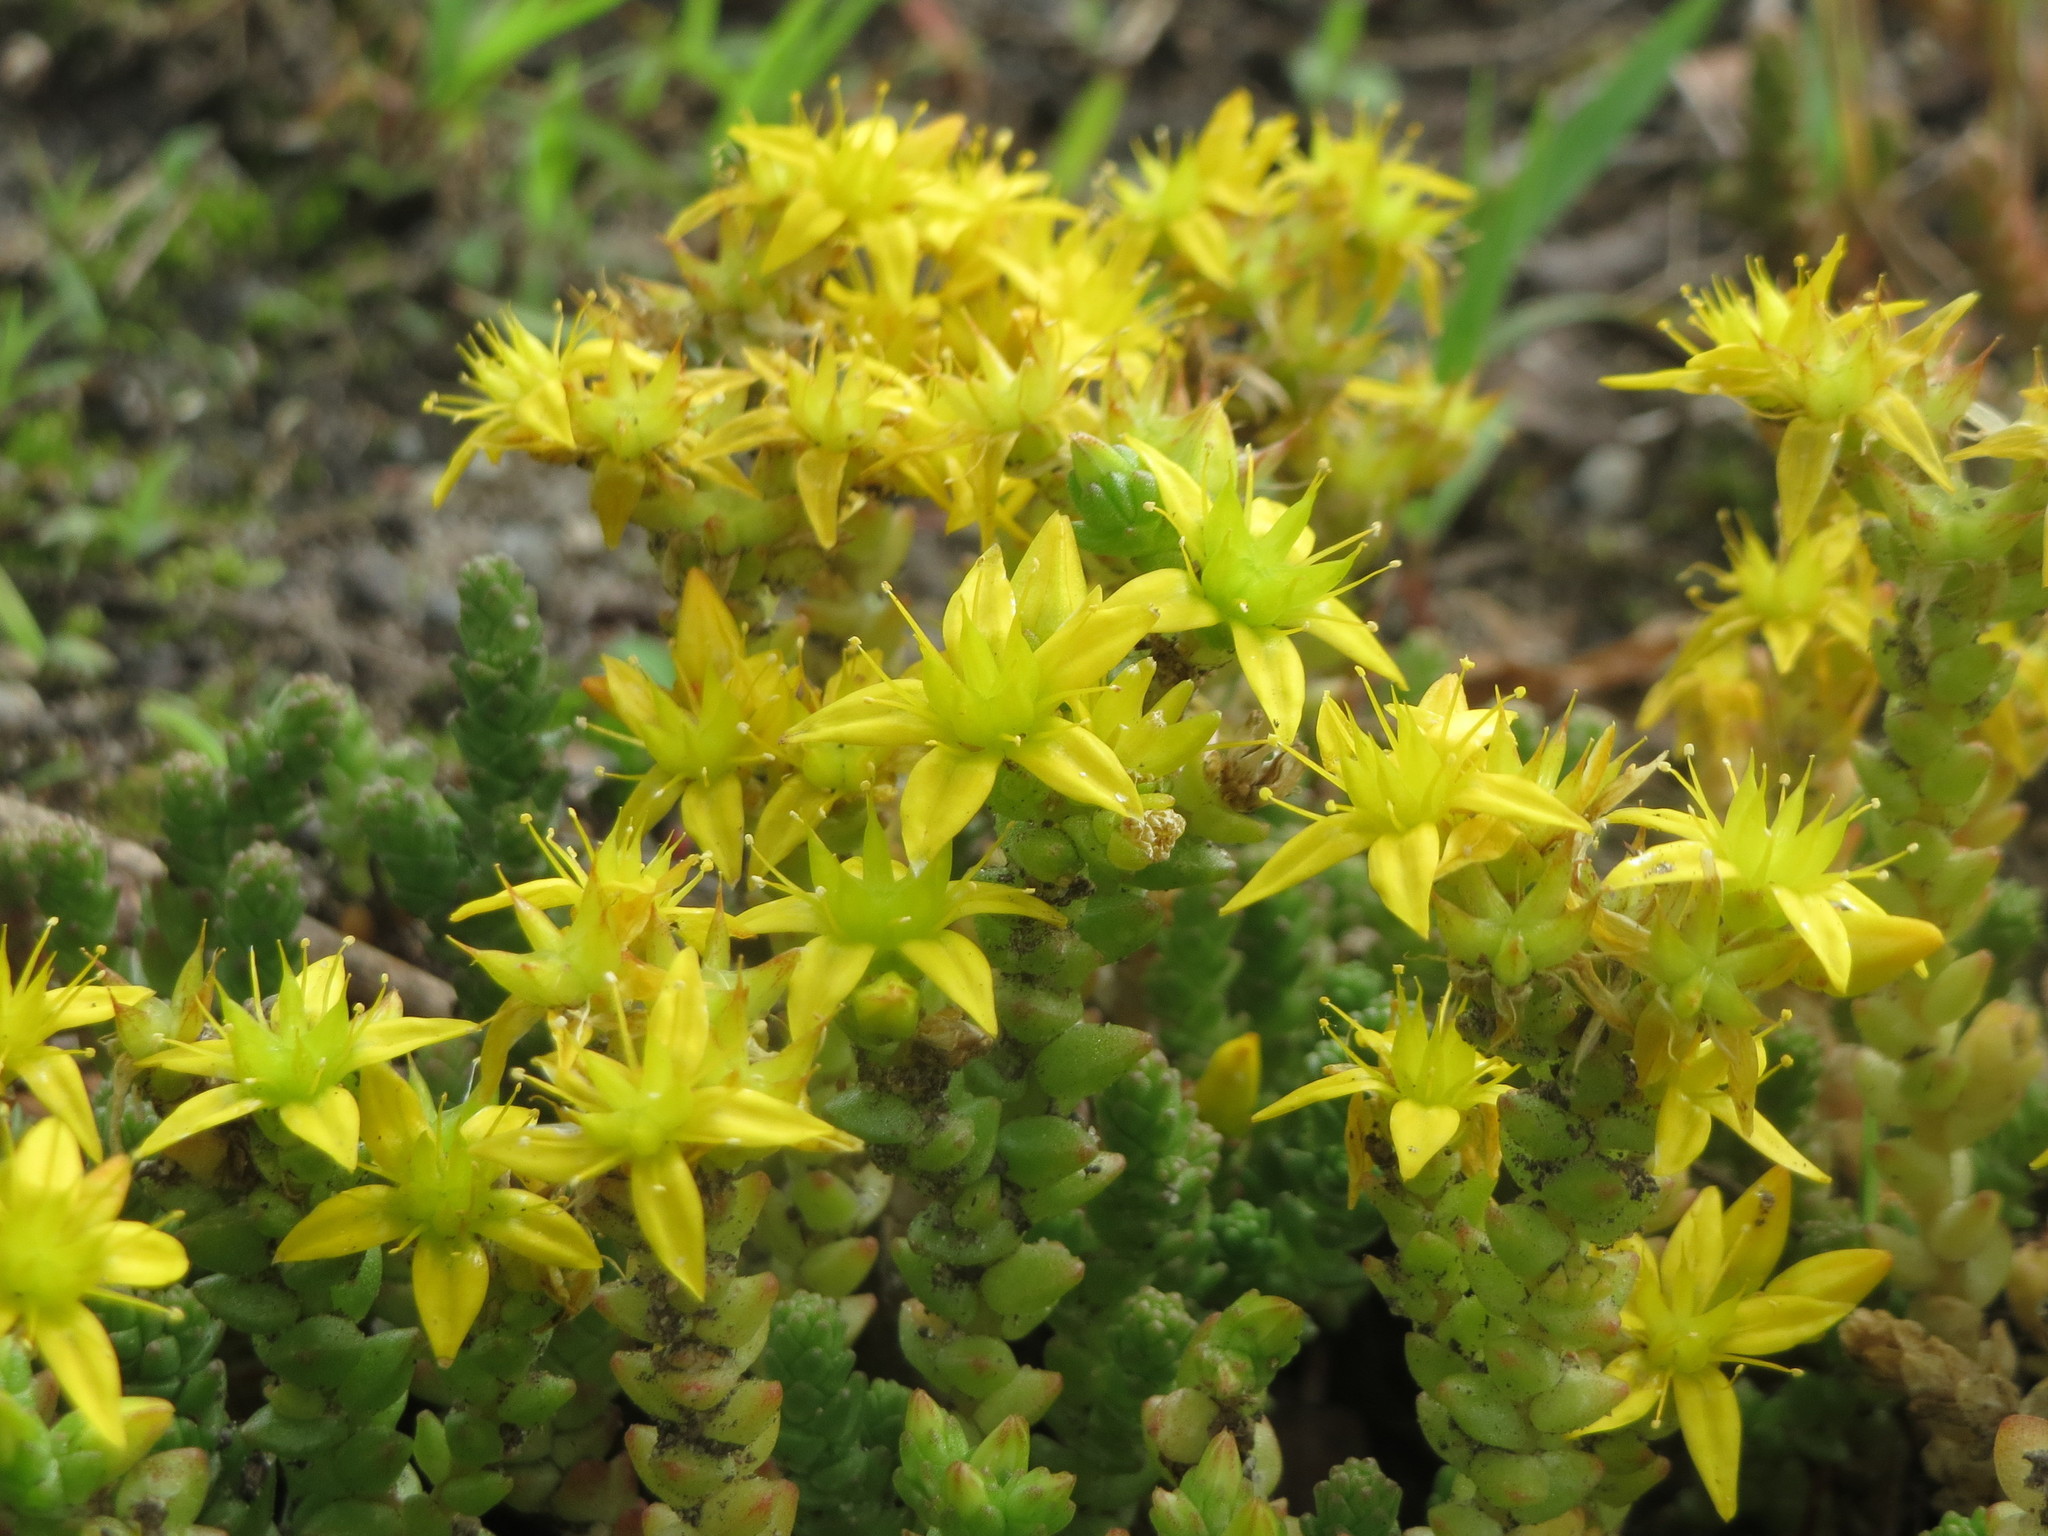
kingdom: Plantae
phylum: Tracheophyta
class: Magnoliopsida
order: Saxifragales
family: Crassulaceae
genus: Sedum
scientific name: Sedum acre
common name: Biting stonecrop
